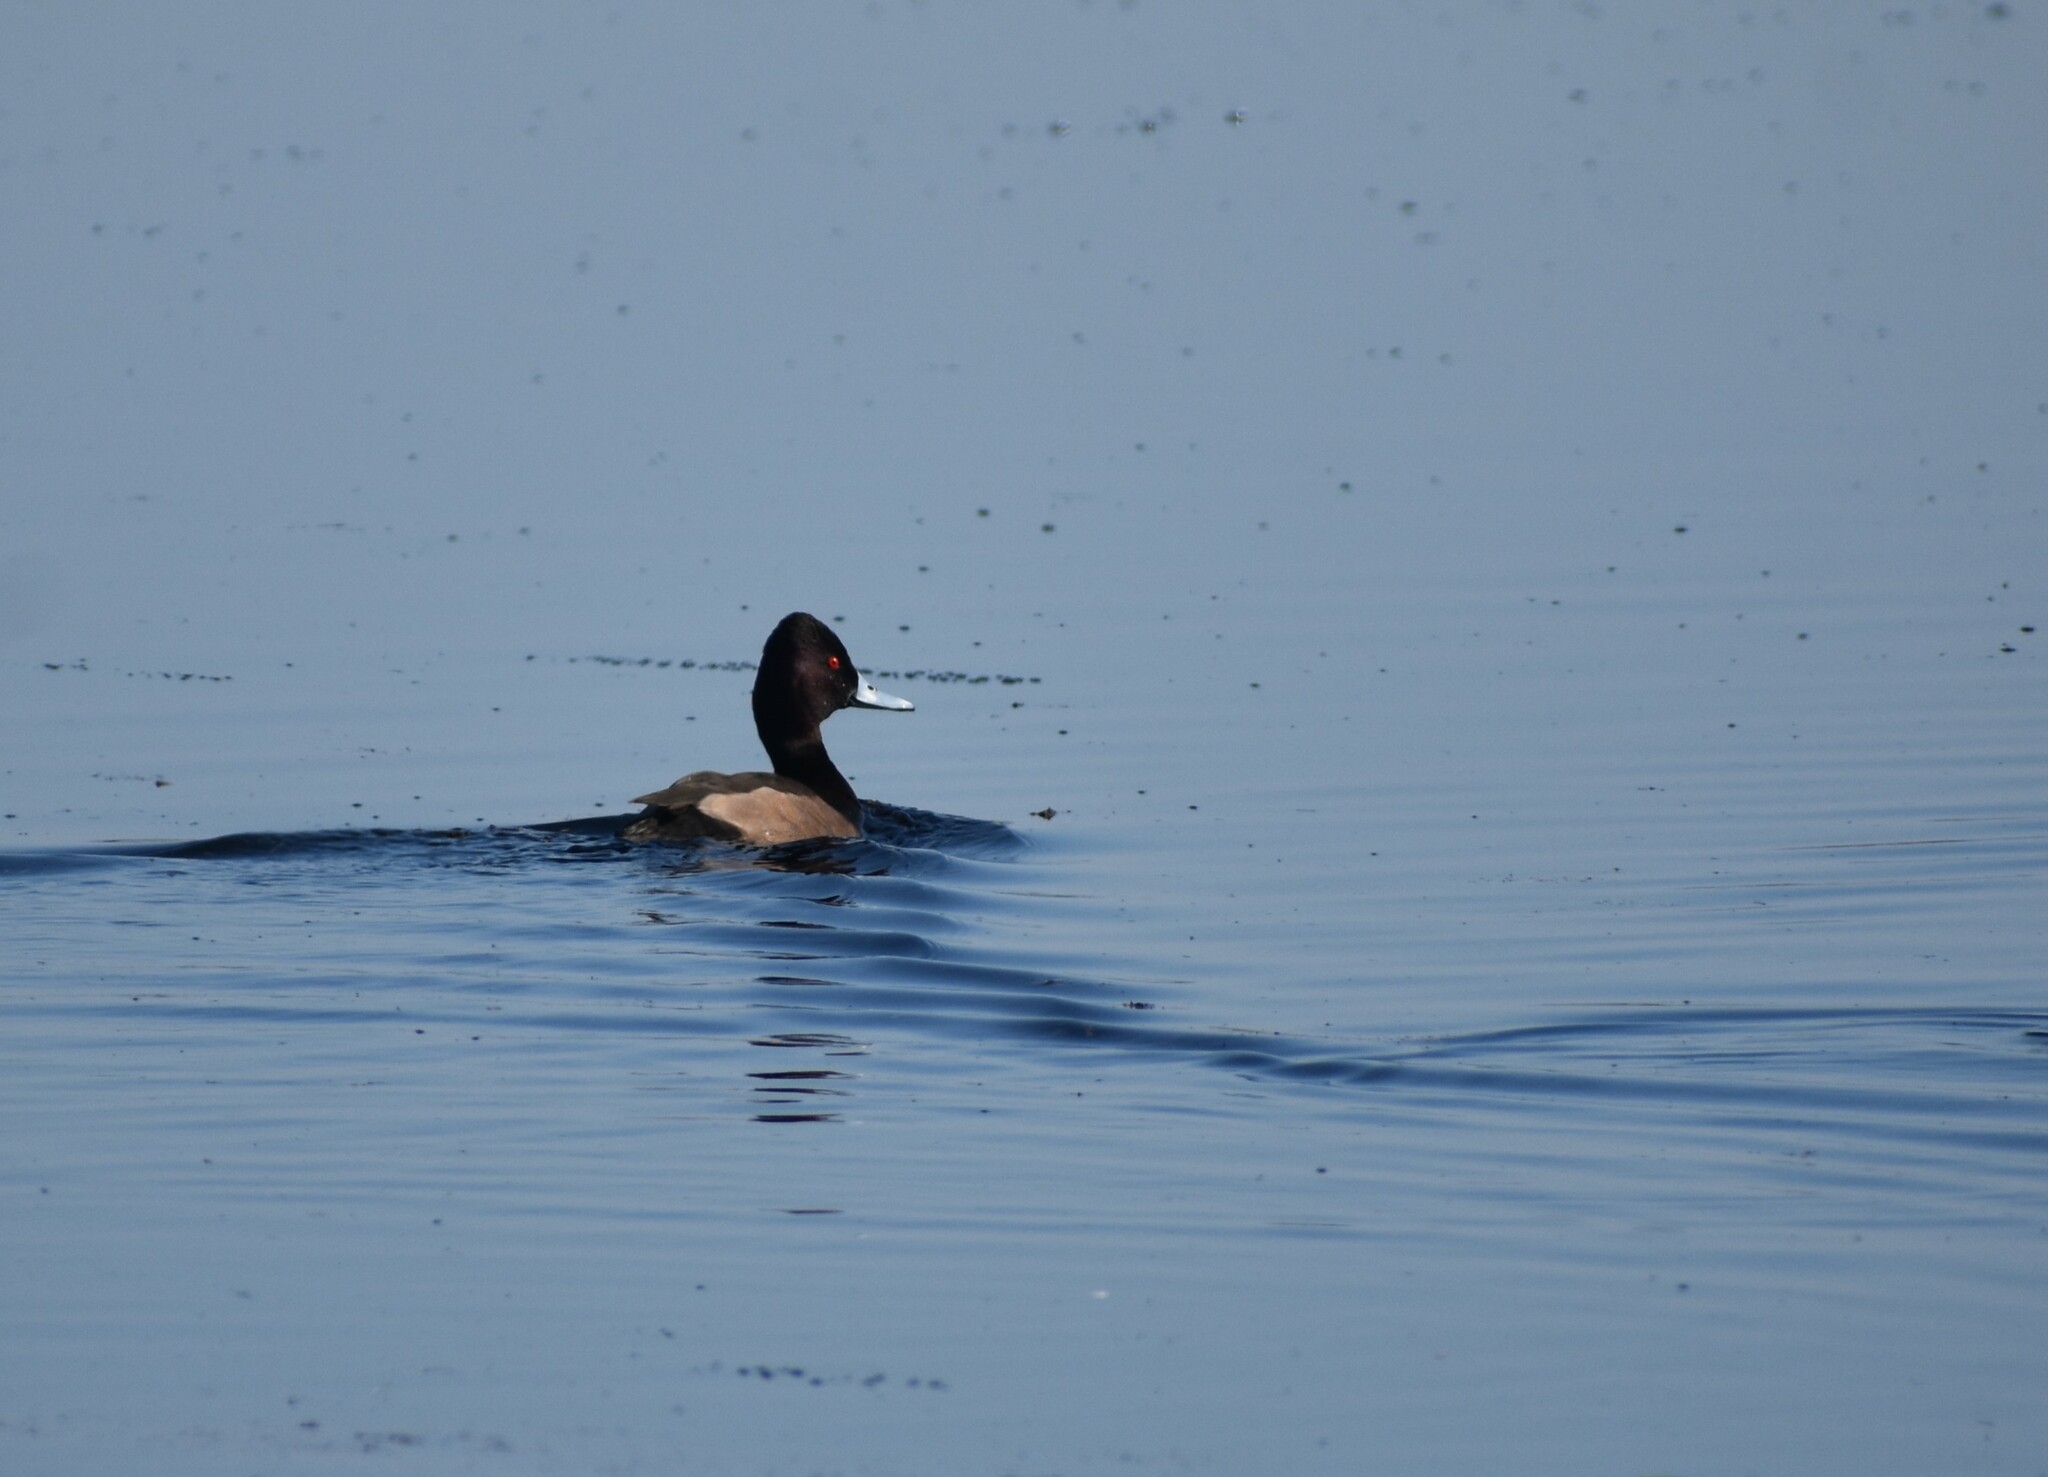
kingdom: Animalia
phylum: Chordata
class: Aves
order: Anseriformes
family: Anatidae
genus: Netta
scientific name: Netta erythrophthalma
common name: Southern pochard
